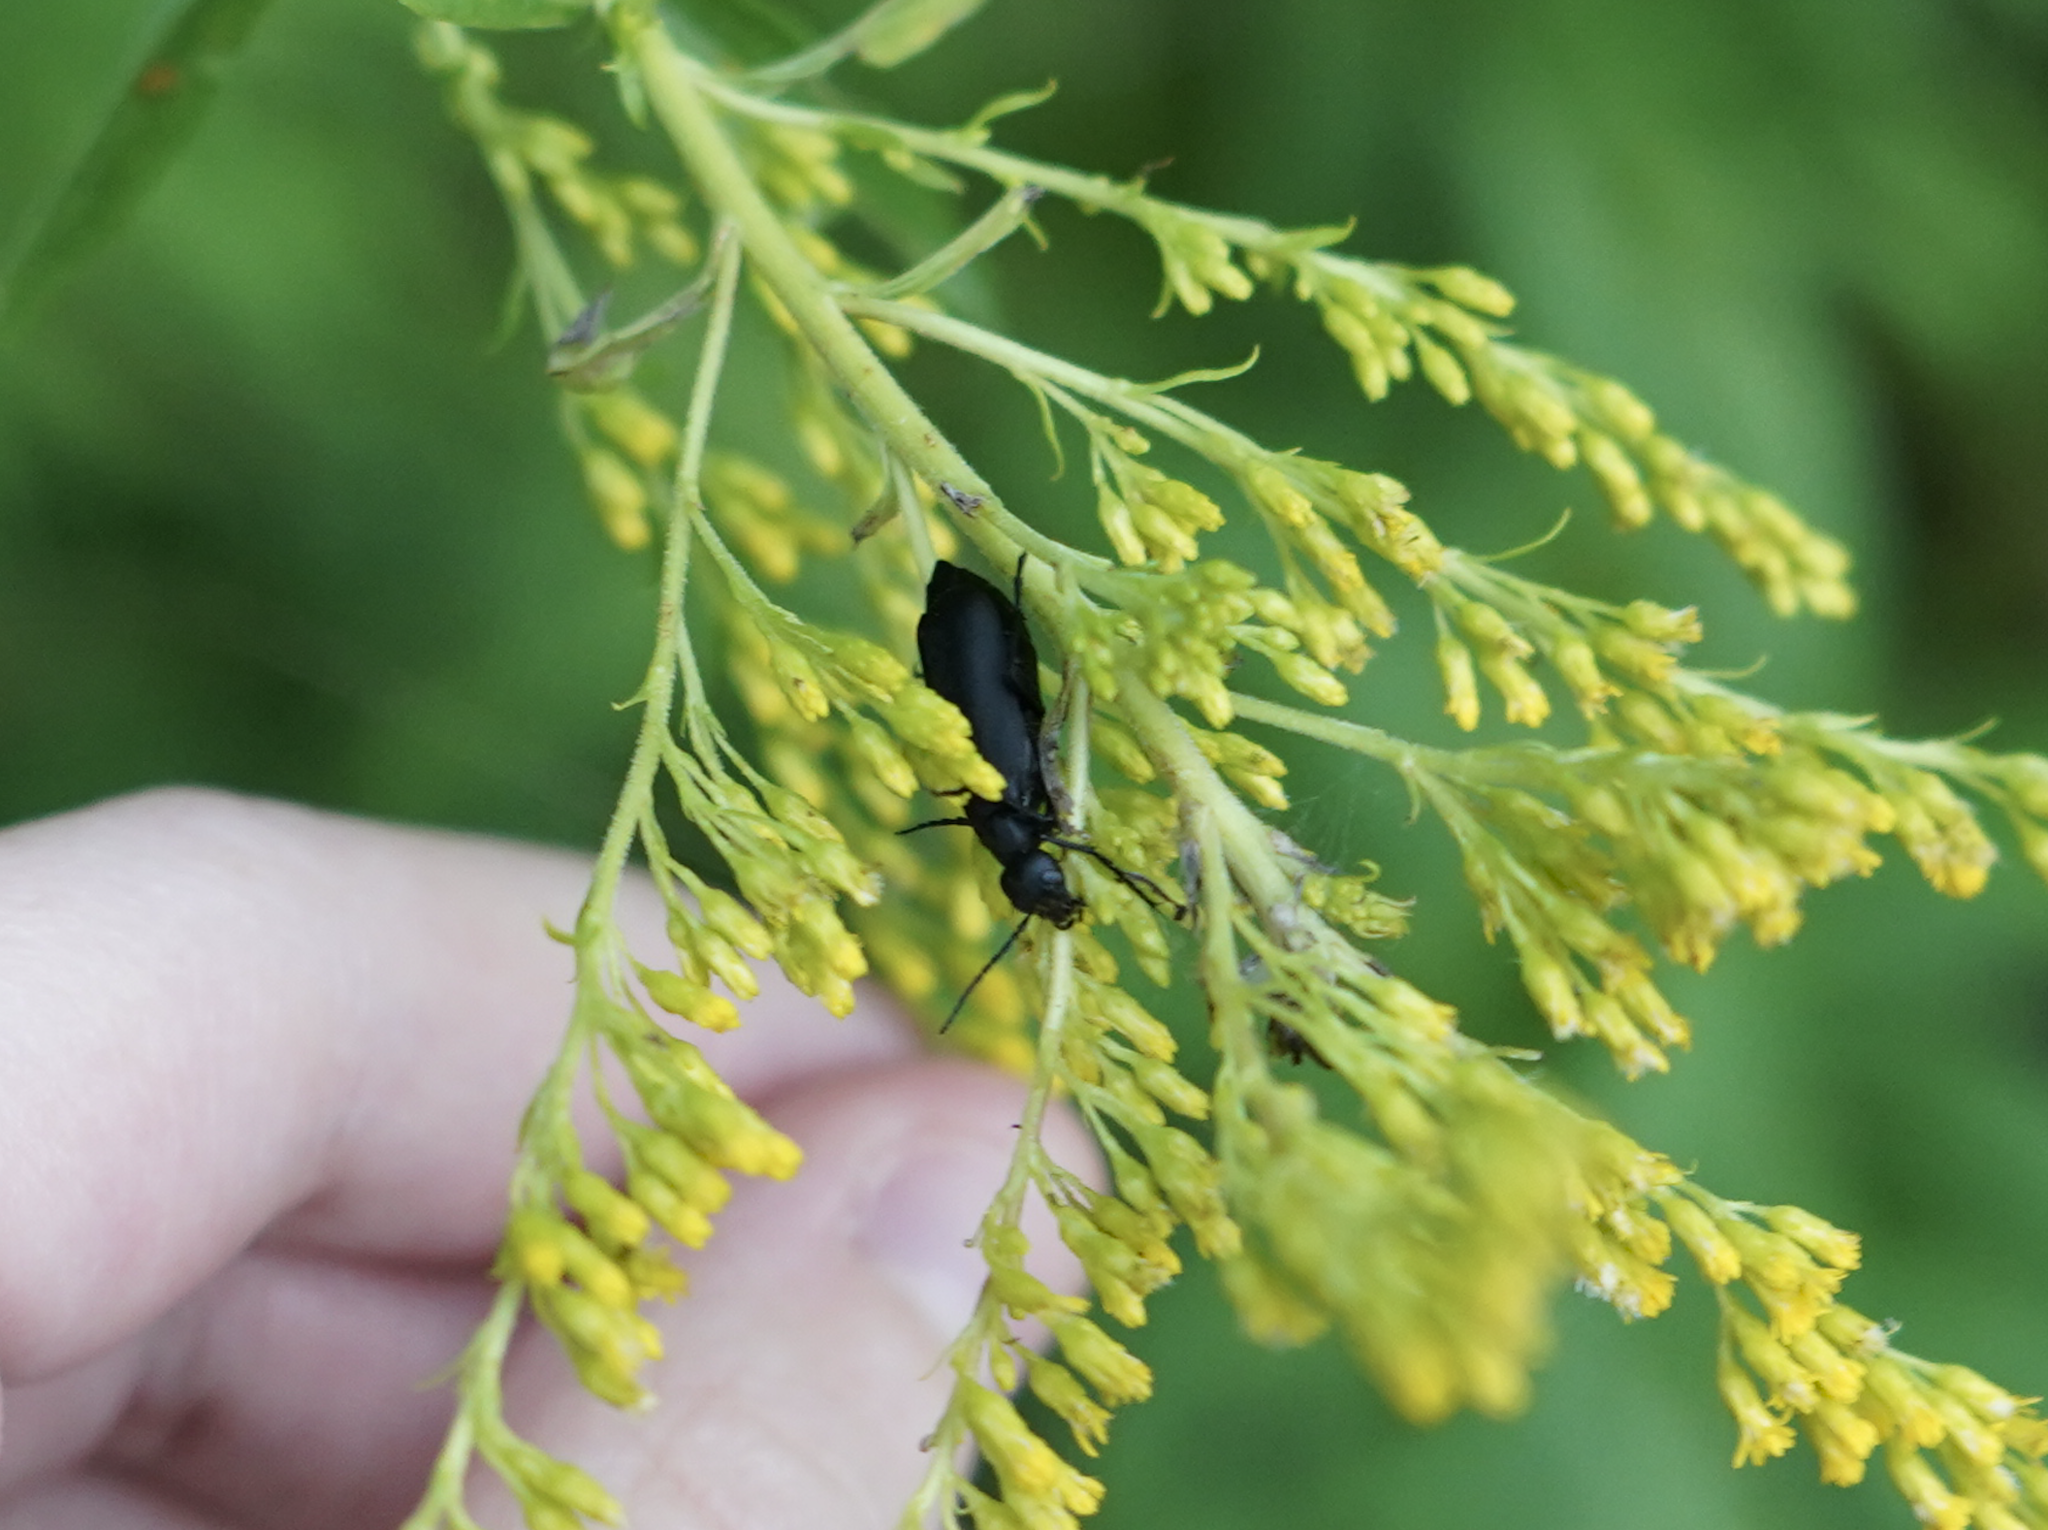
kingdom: Animalia
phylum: Arthropoda
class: Insecta
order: Coleoptera
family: Meloidae
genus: Epicauta
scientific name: Epicauta pensylvanica
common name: Black blister beetle
